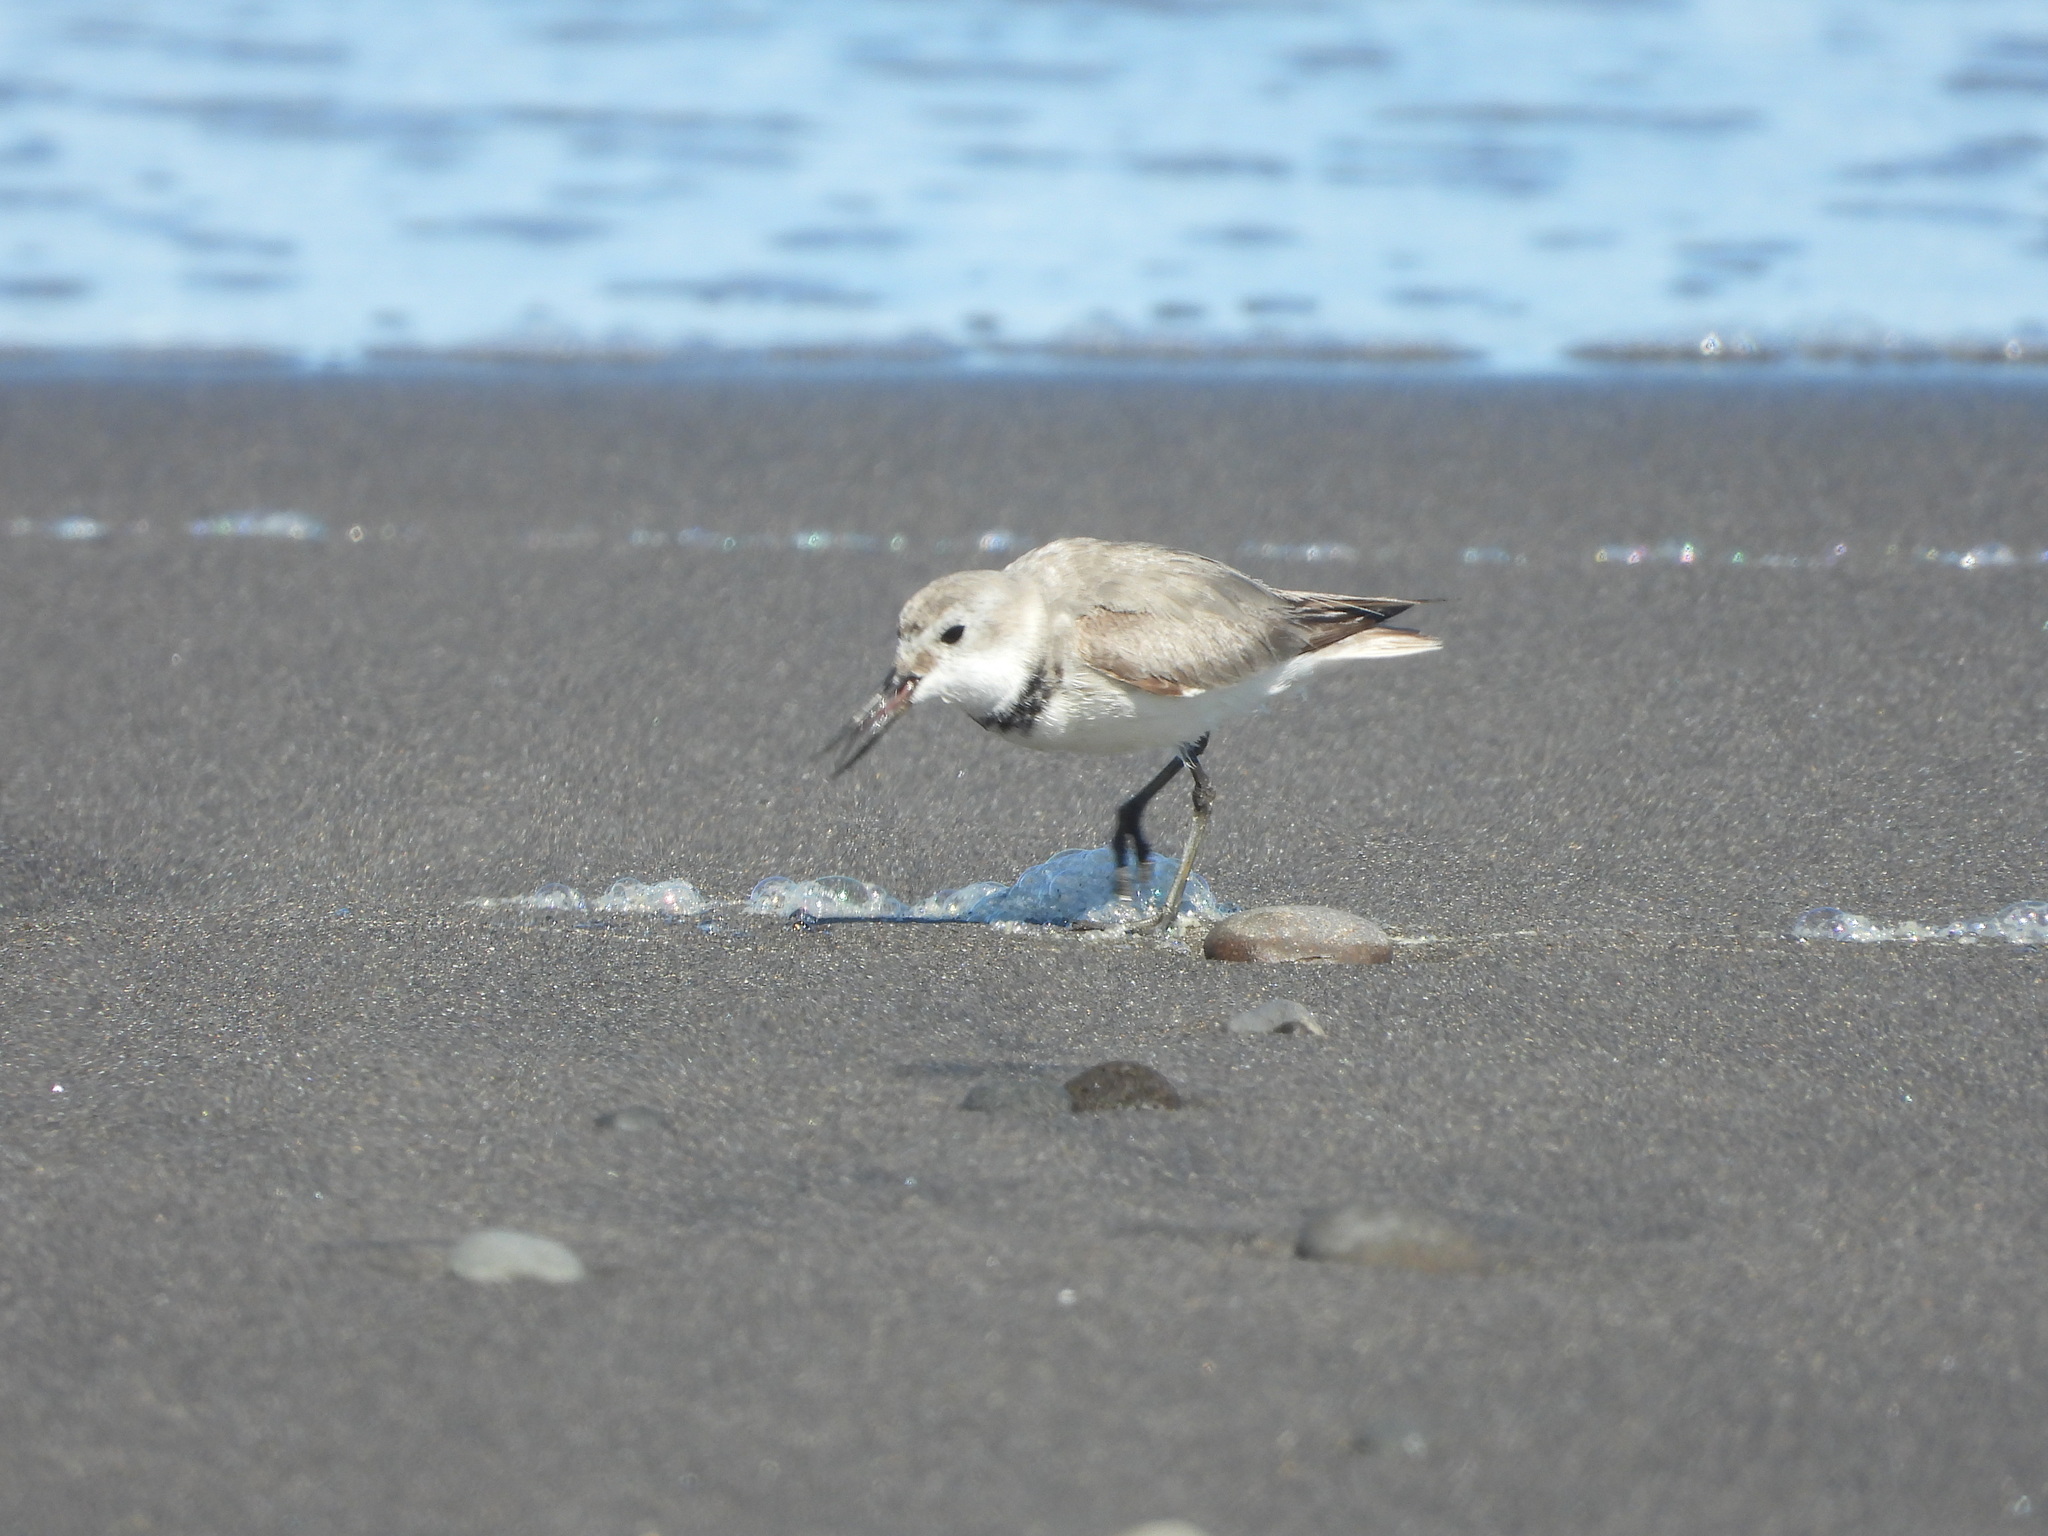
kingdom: Animalia
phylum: Chordata
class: Aves
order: Charadriiformes
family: Charadriidae
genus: Anarhynchus
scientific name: Anarhynchus frontalis
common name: Wrybill
